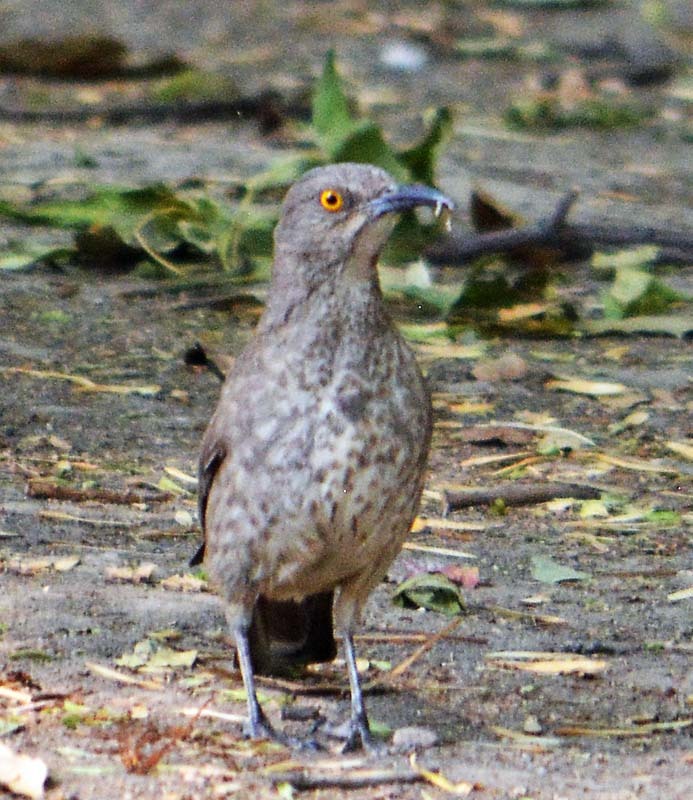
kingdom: Animalia
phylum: Chordata
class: Aves
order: Passeriformes
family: Mimidae
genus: Toxostoma
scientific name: Toxostoma curvirostre
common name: Curve-billed thrasher
